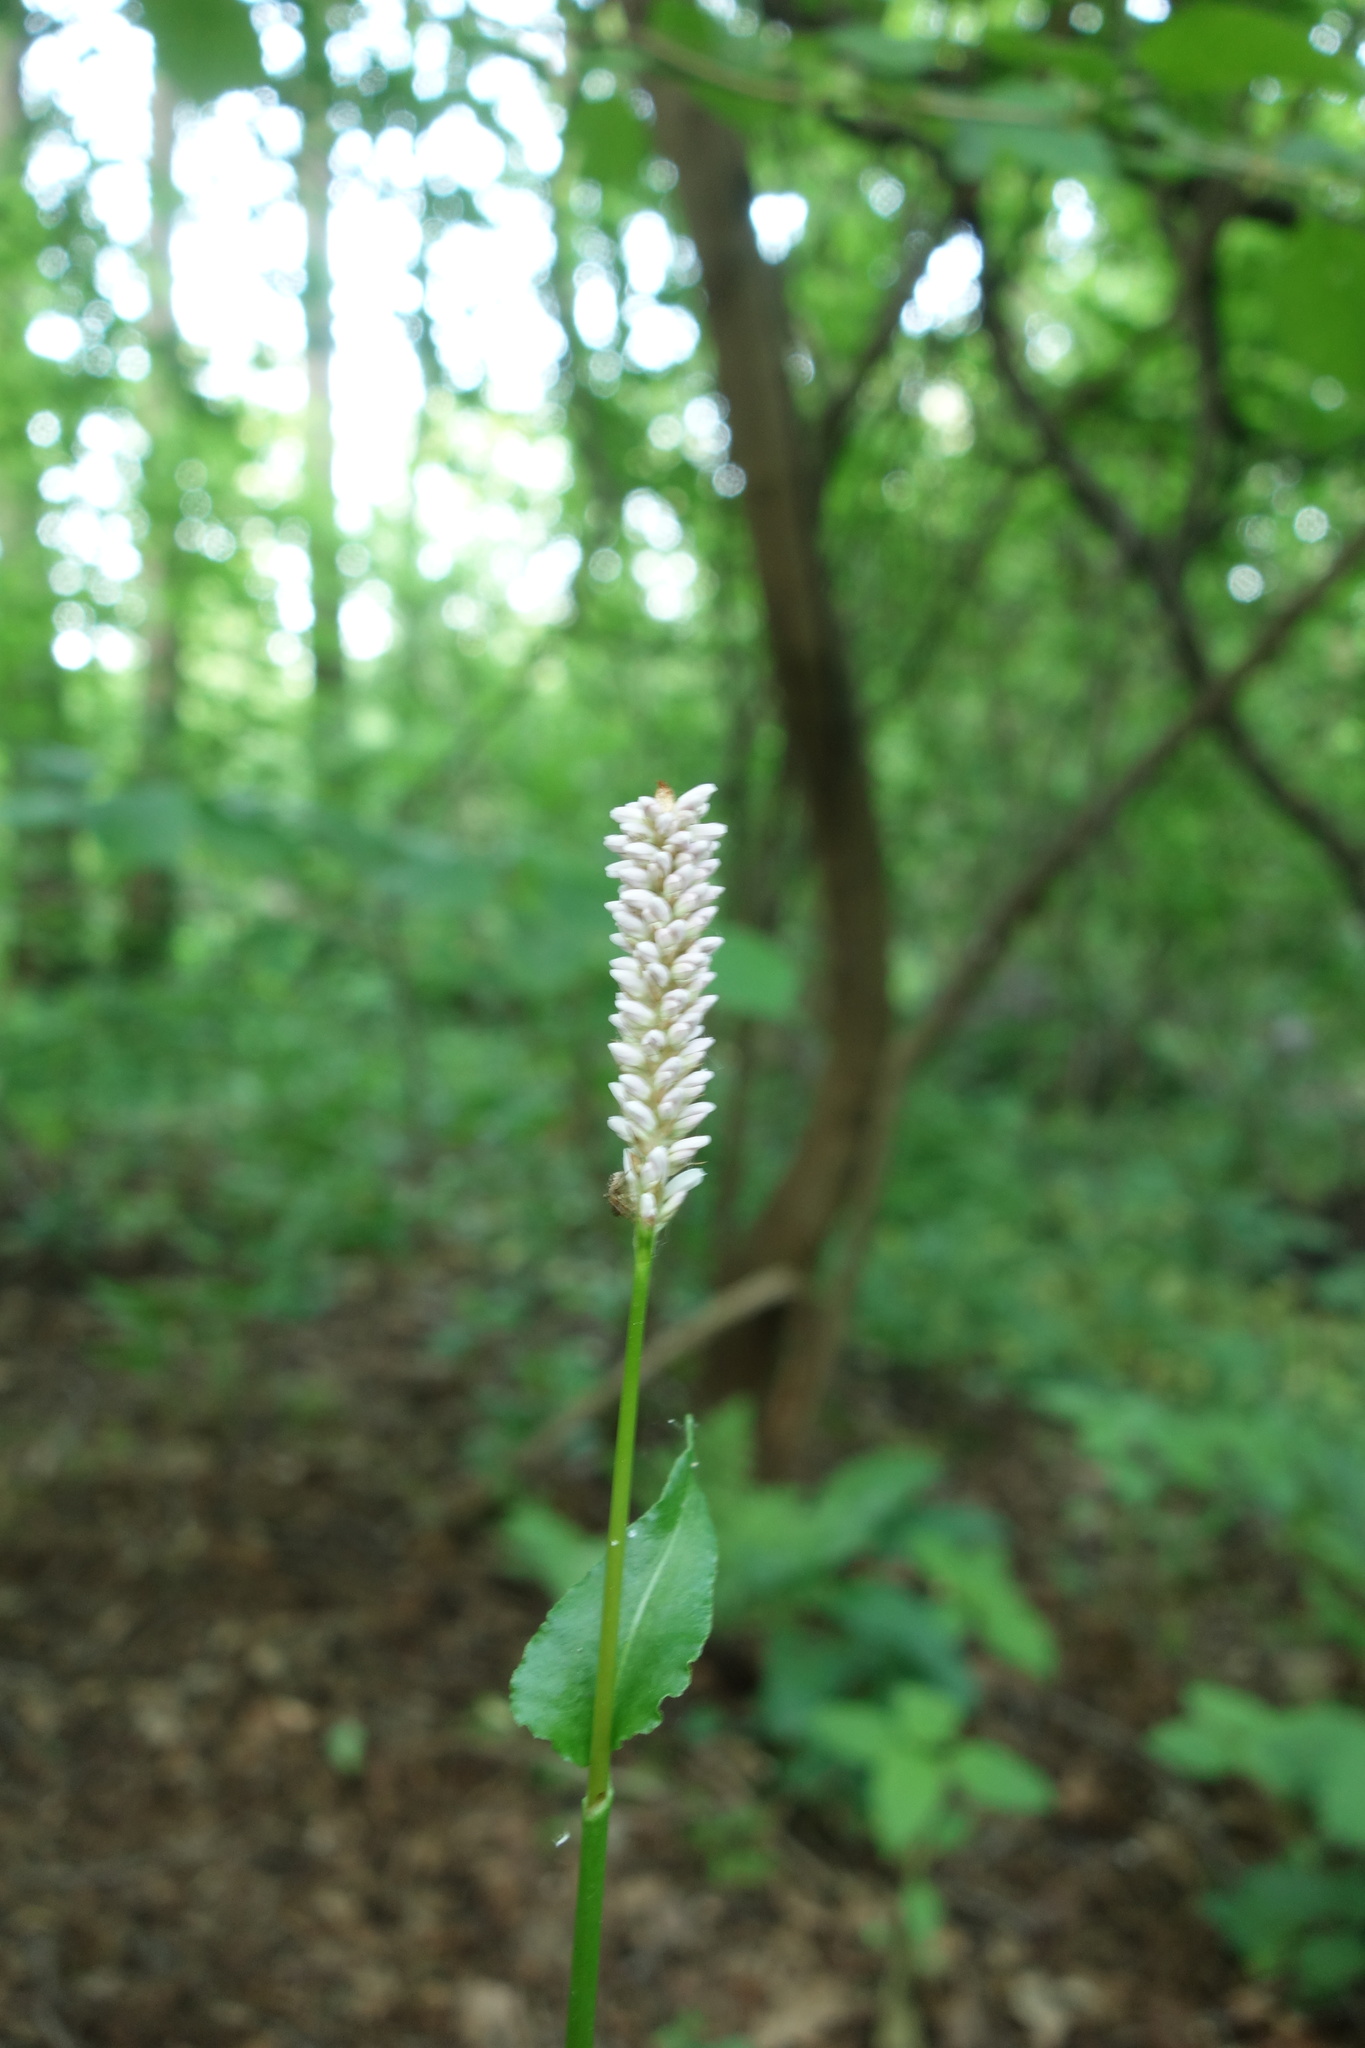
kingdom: Plantae
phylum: Tracheophyta
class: Magnoliopsida
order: Caryophyllales
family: Polygonaceae
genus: Bistorta
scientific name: Bistorta officinalis
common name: Common bistort
